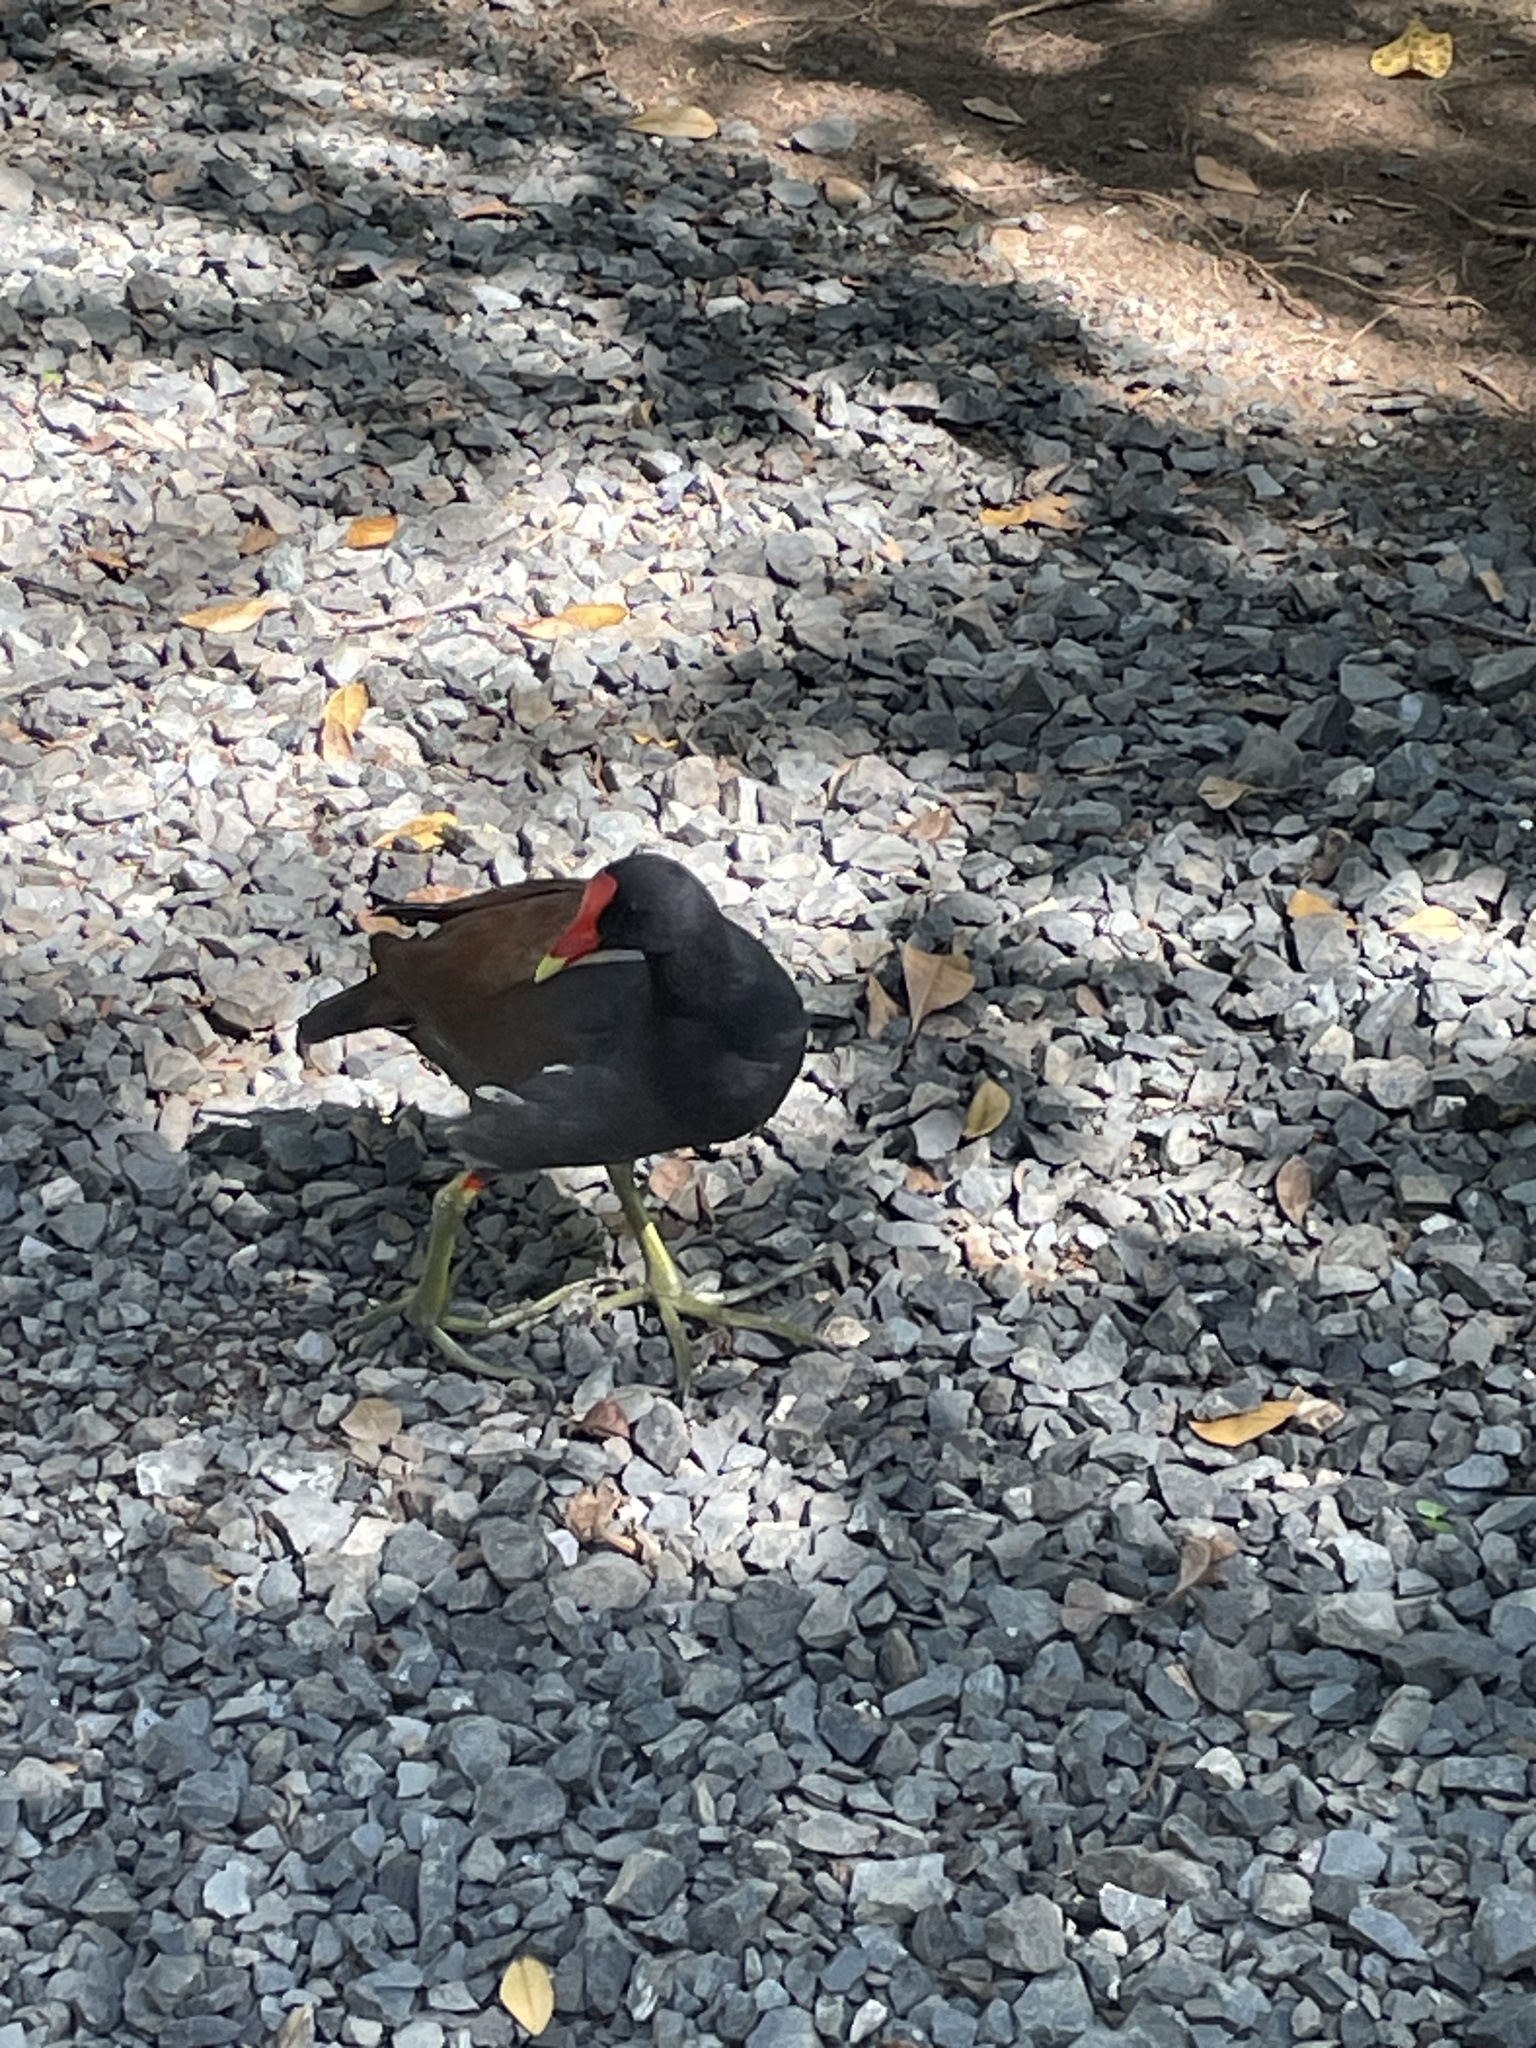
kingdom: Animalia
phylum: Chordata
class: Aves
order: Gruiformes
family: Rallidae
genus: Gallinula
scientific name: Gallinula chloropus
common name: Common moorhen
